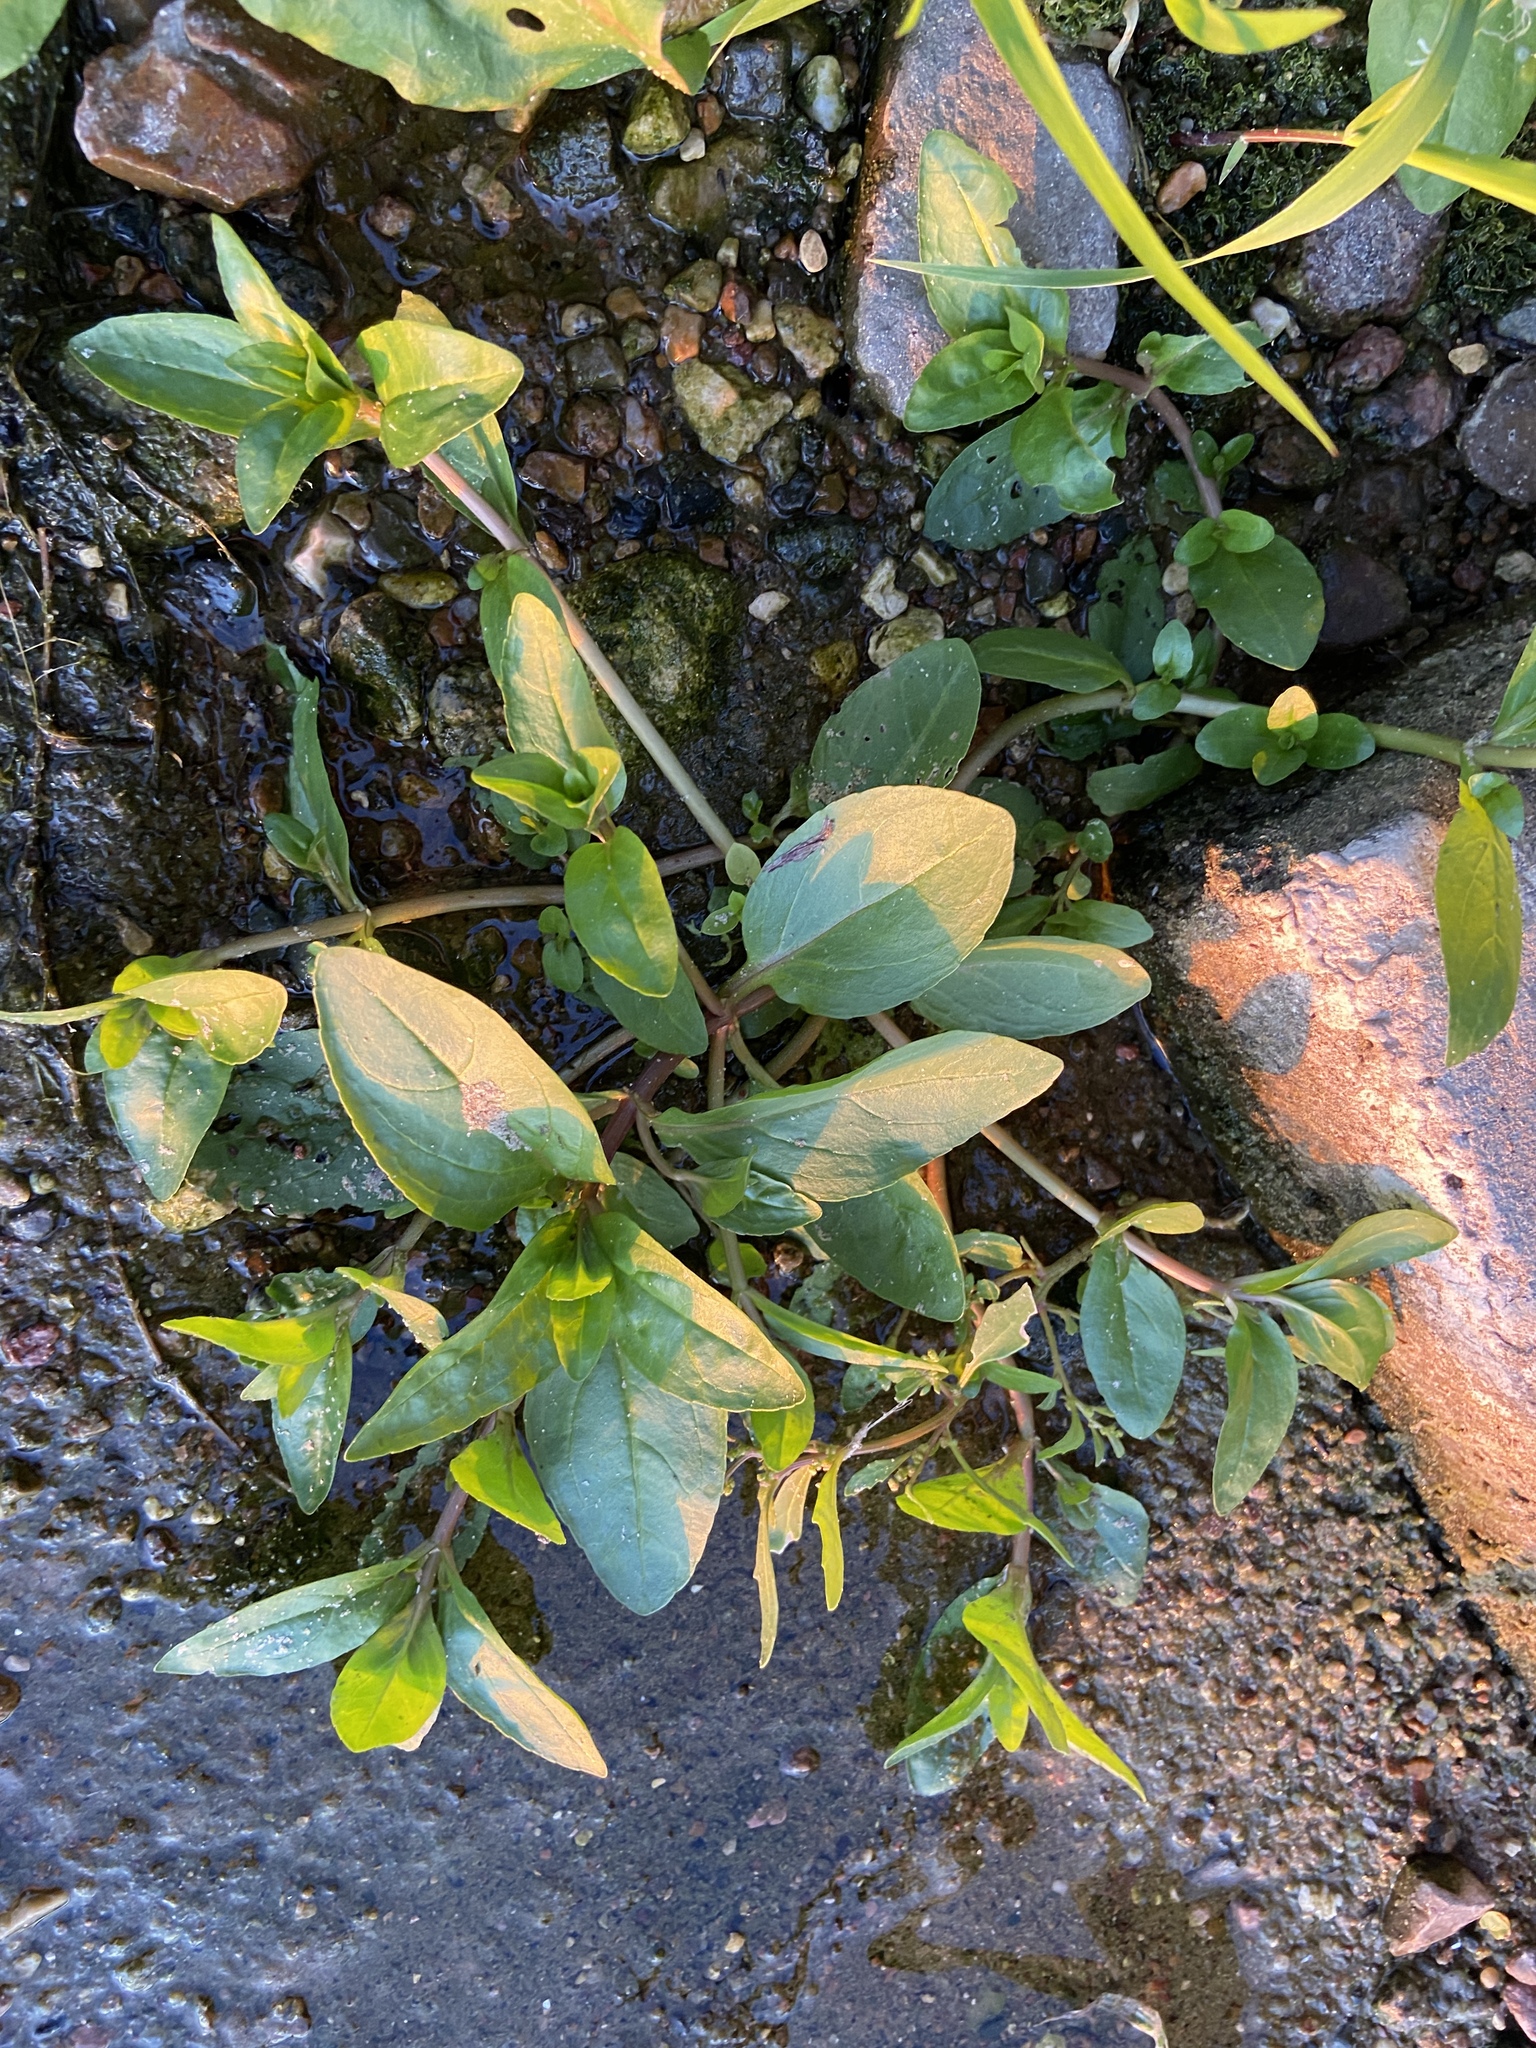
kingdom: Plantae
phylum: Tracheophyta
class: Magnoliopsida
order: Lamiales
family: Plantaginaceae
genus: Veronica
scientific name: Veronica beccabunga
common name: Brooklime
